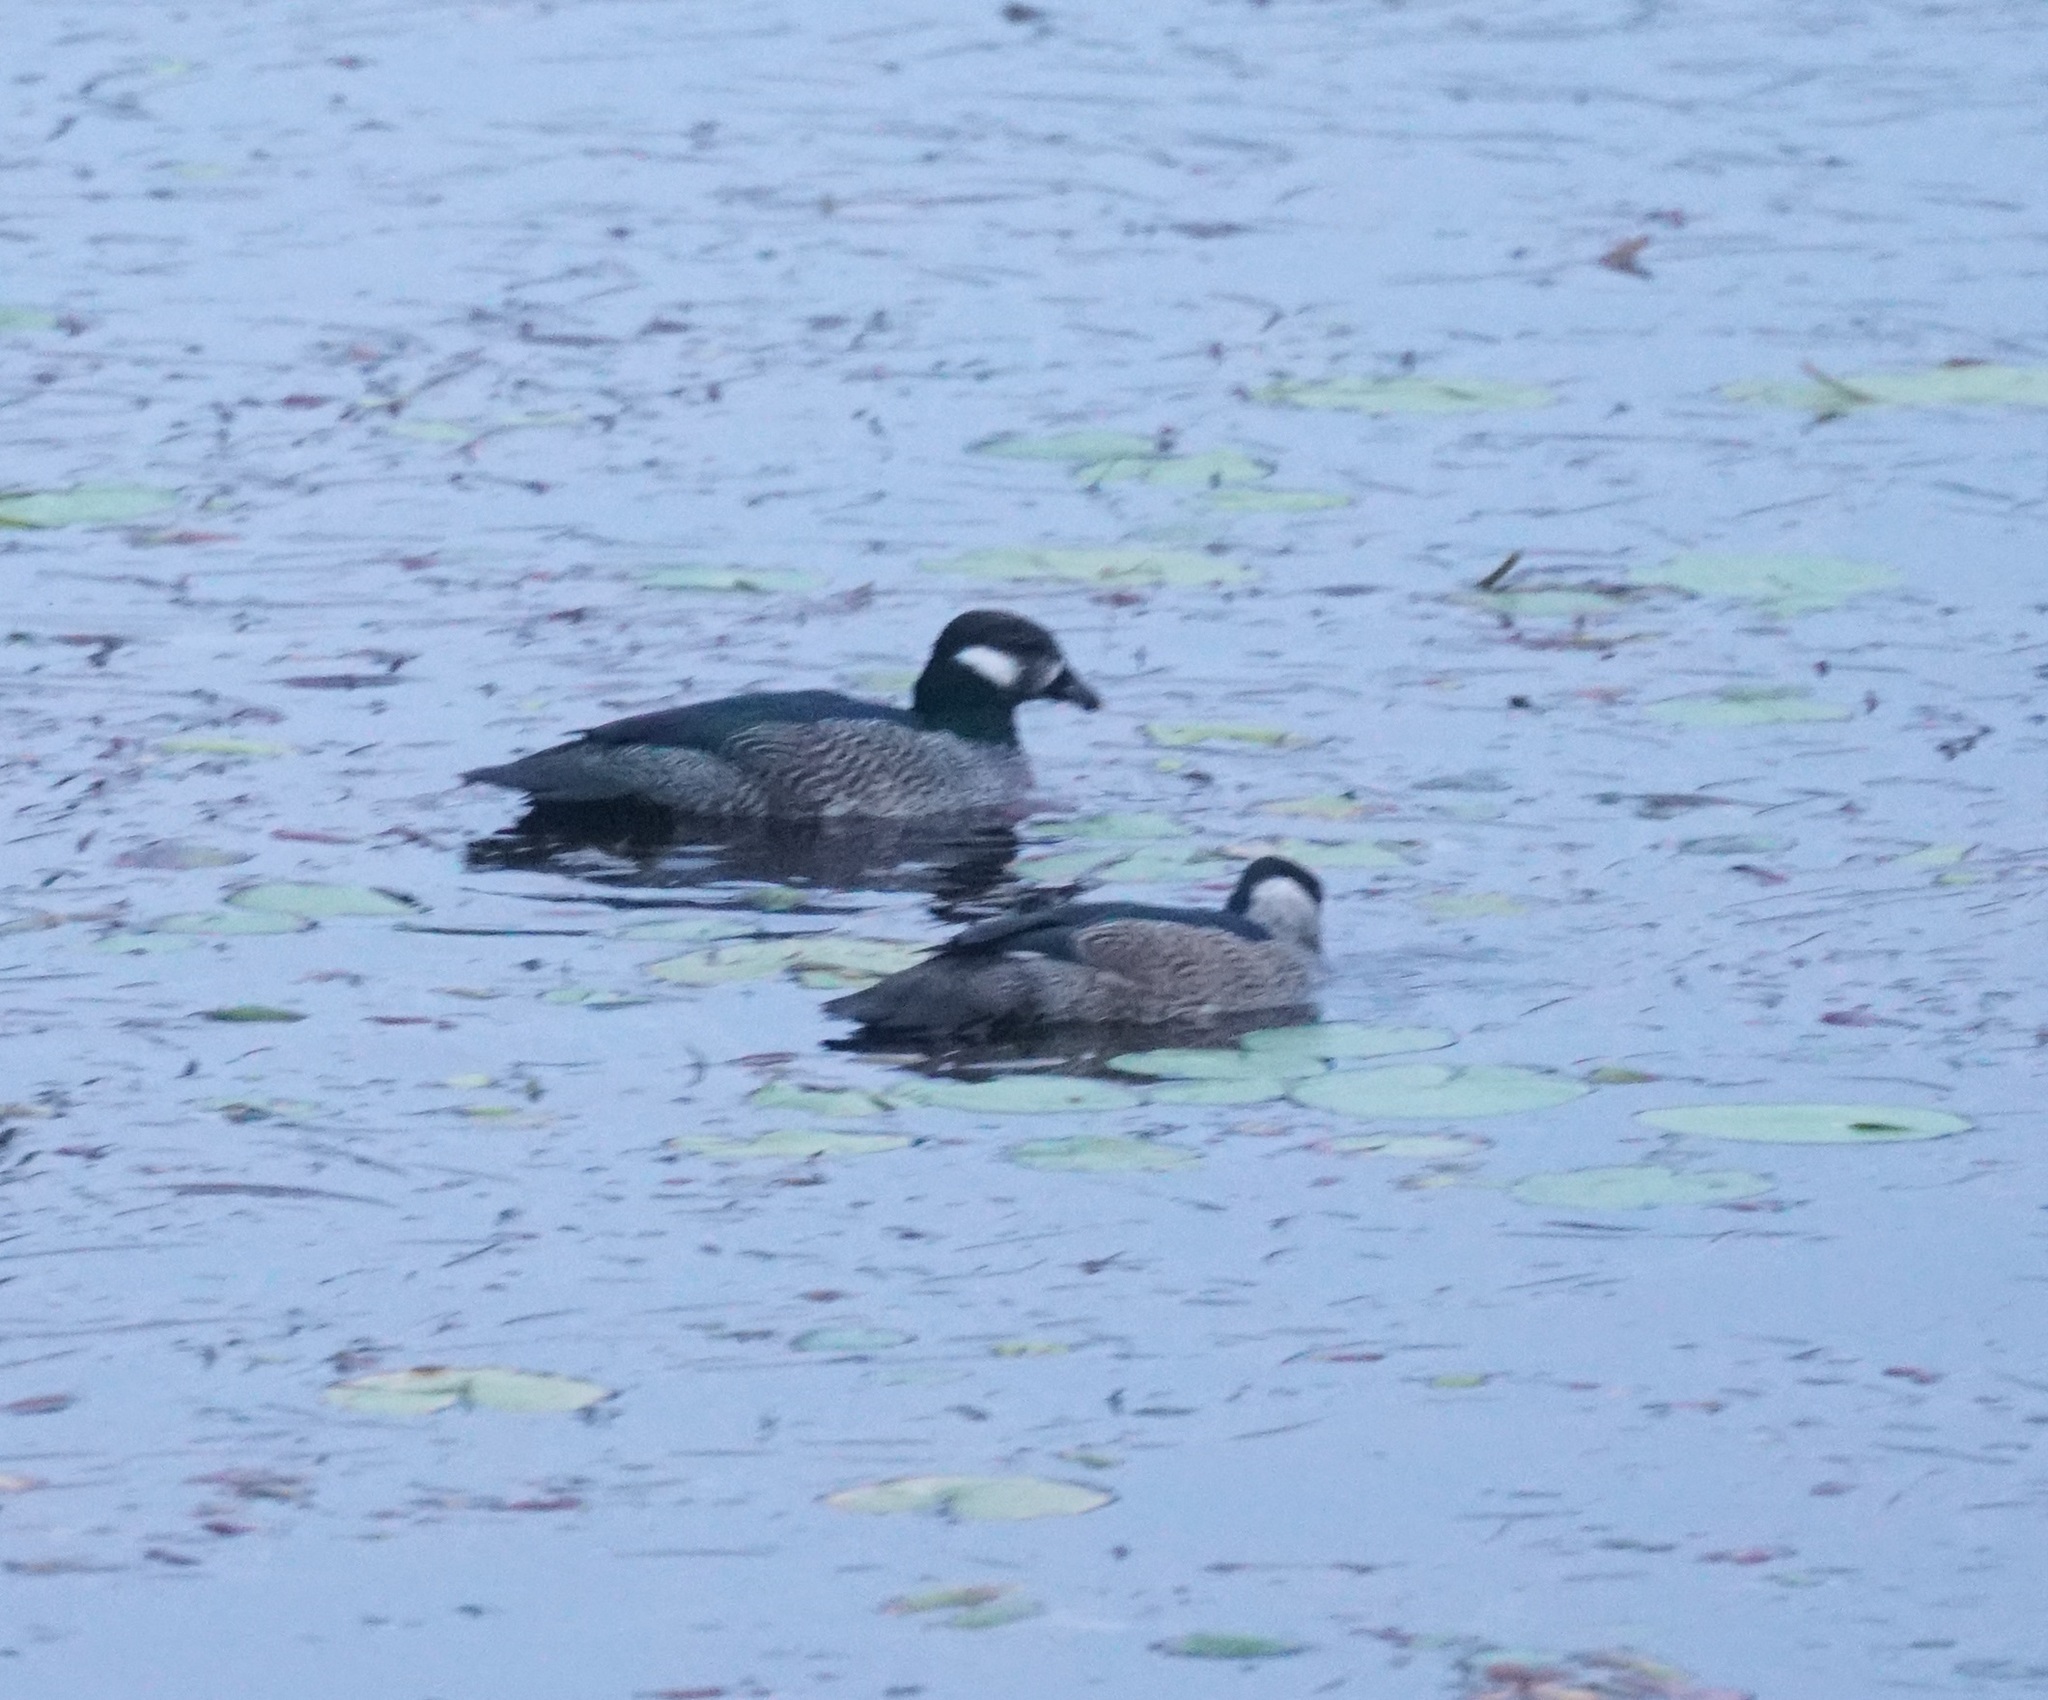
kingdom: Animalia
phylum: Chordata
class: Aves
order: Anseriformes
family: Anatidae
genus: Nettapus
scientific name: Nettapus pulchellus
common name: Green pygmy-goose
